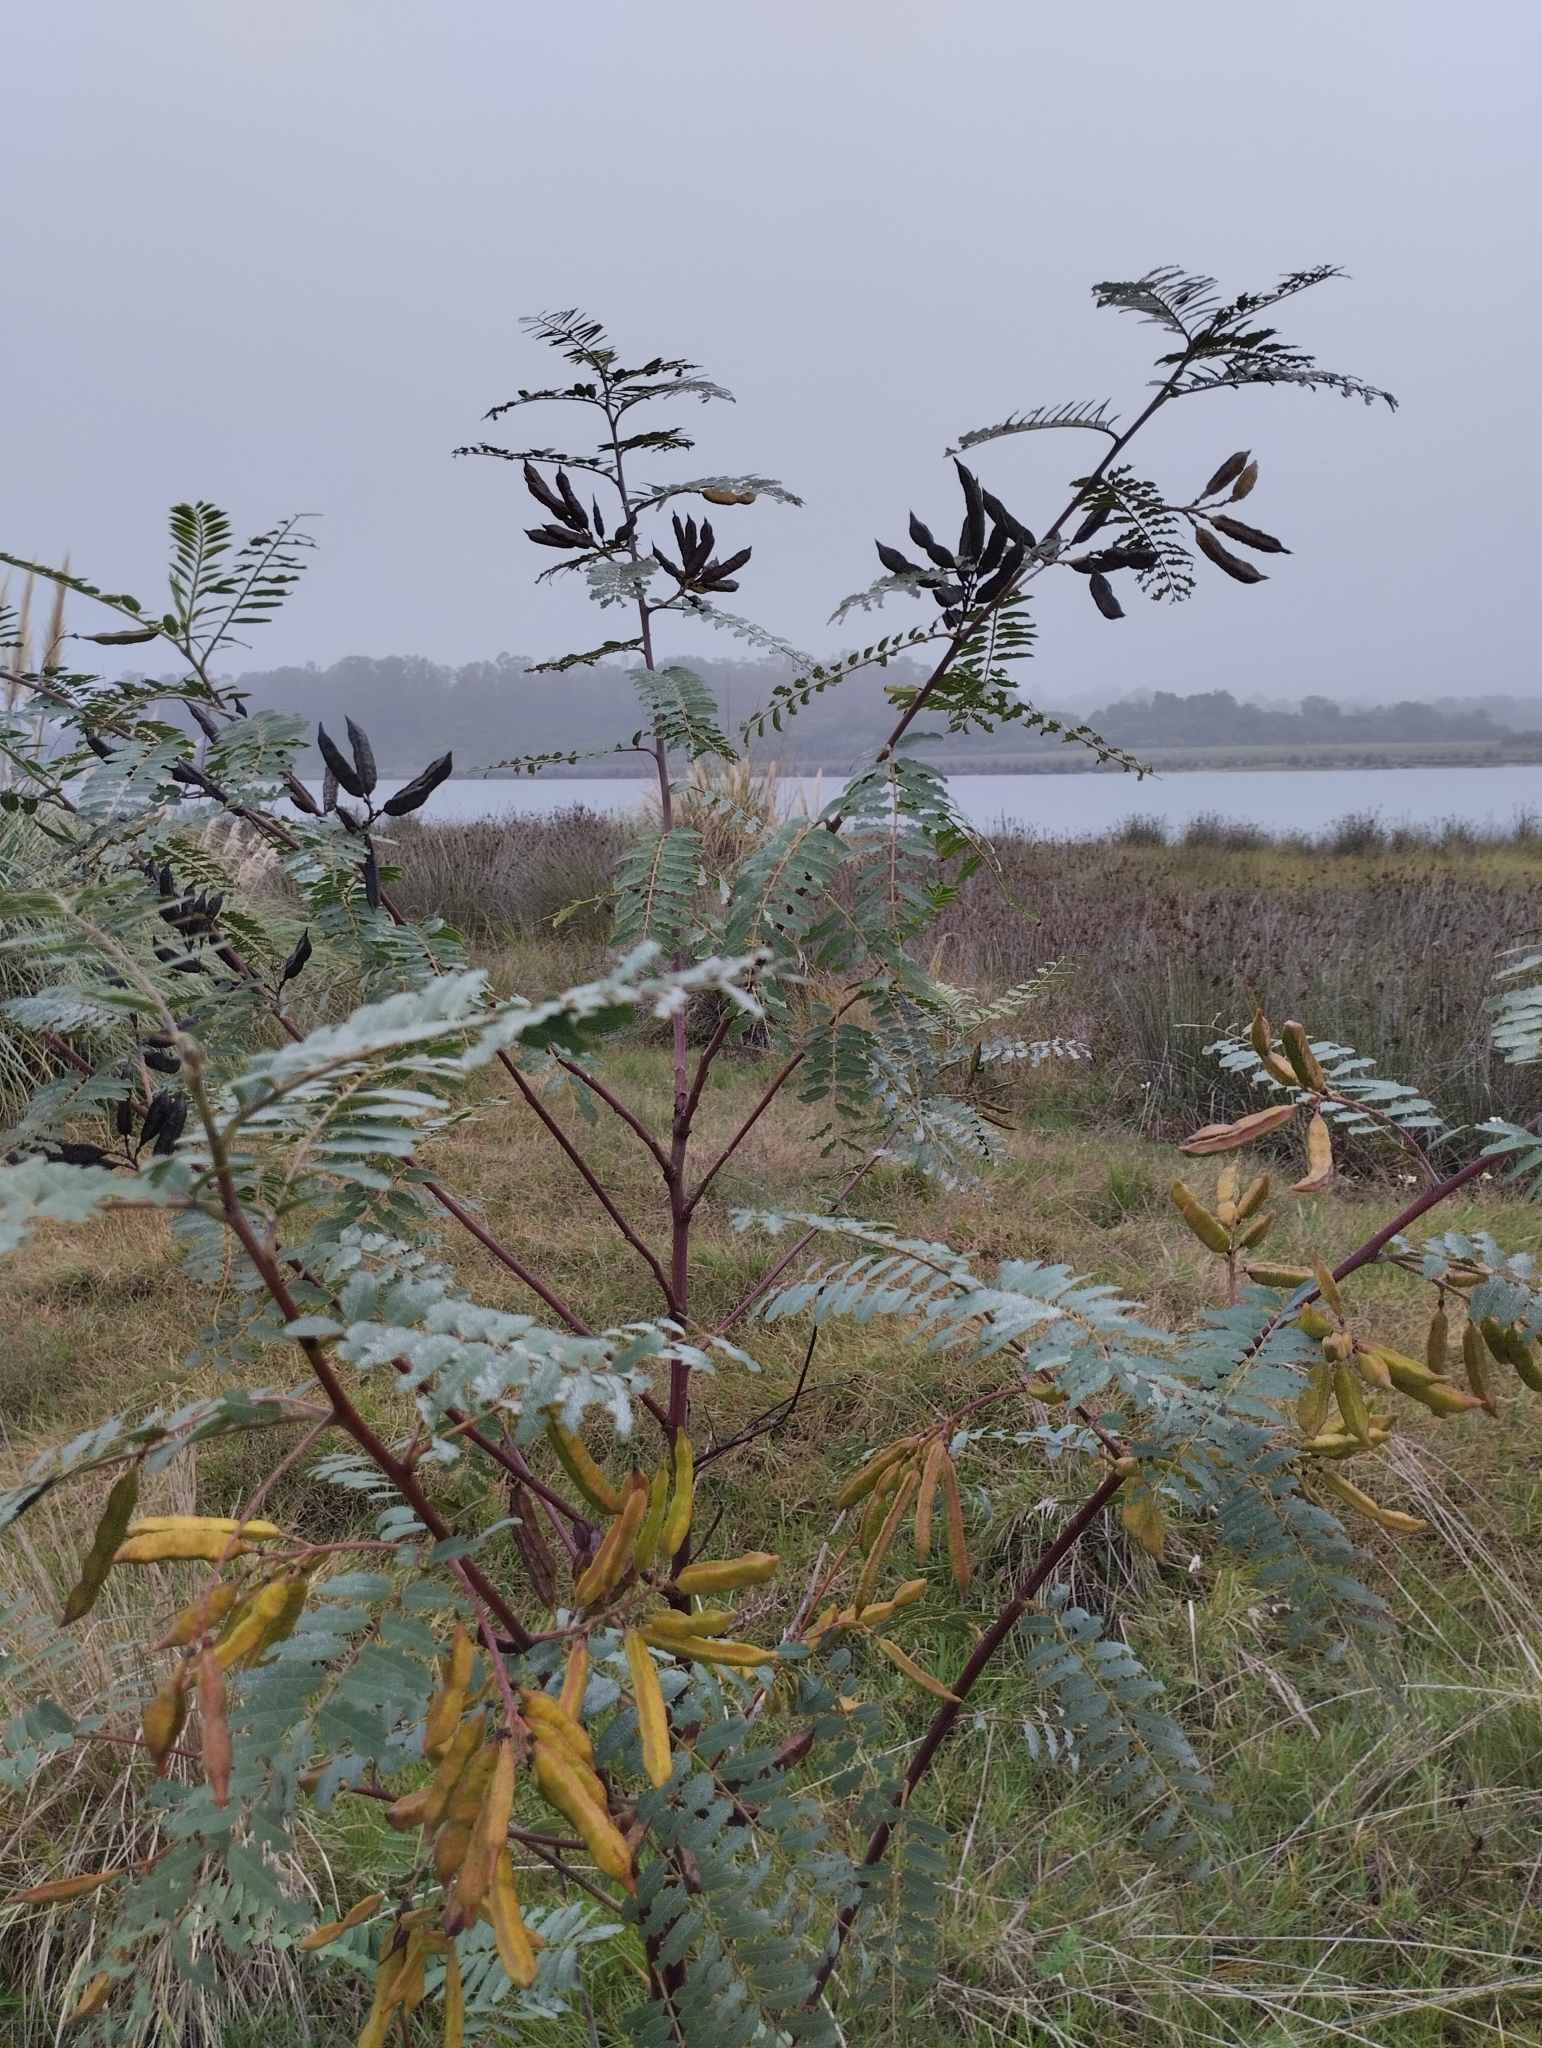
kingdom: Plantae
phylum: Tracheophyta
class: Magnoliopsida
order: Fabales
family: Fabaceae
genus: Sesbania
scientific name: Sesbania virgata
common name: Wand riverhemp
